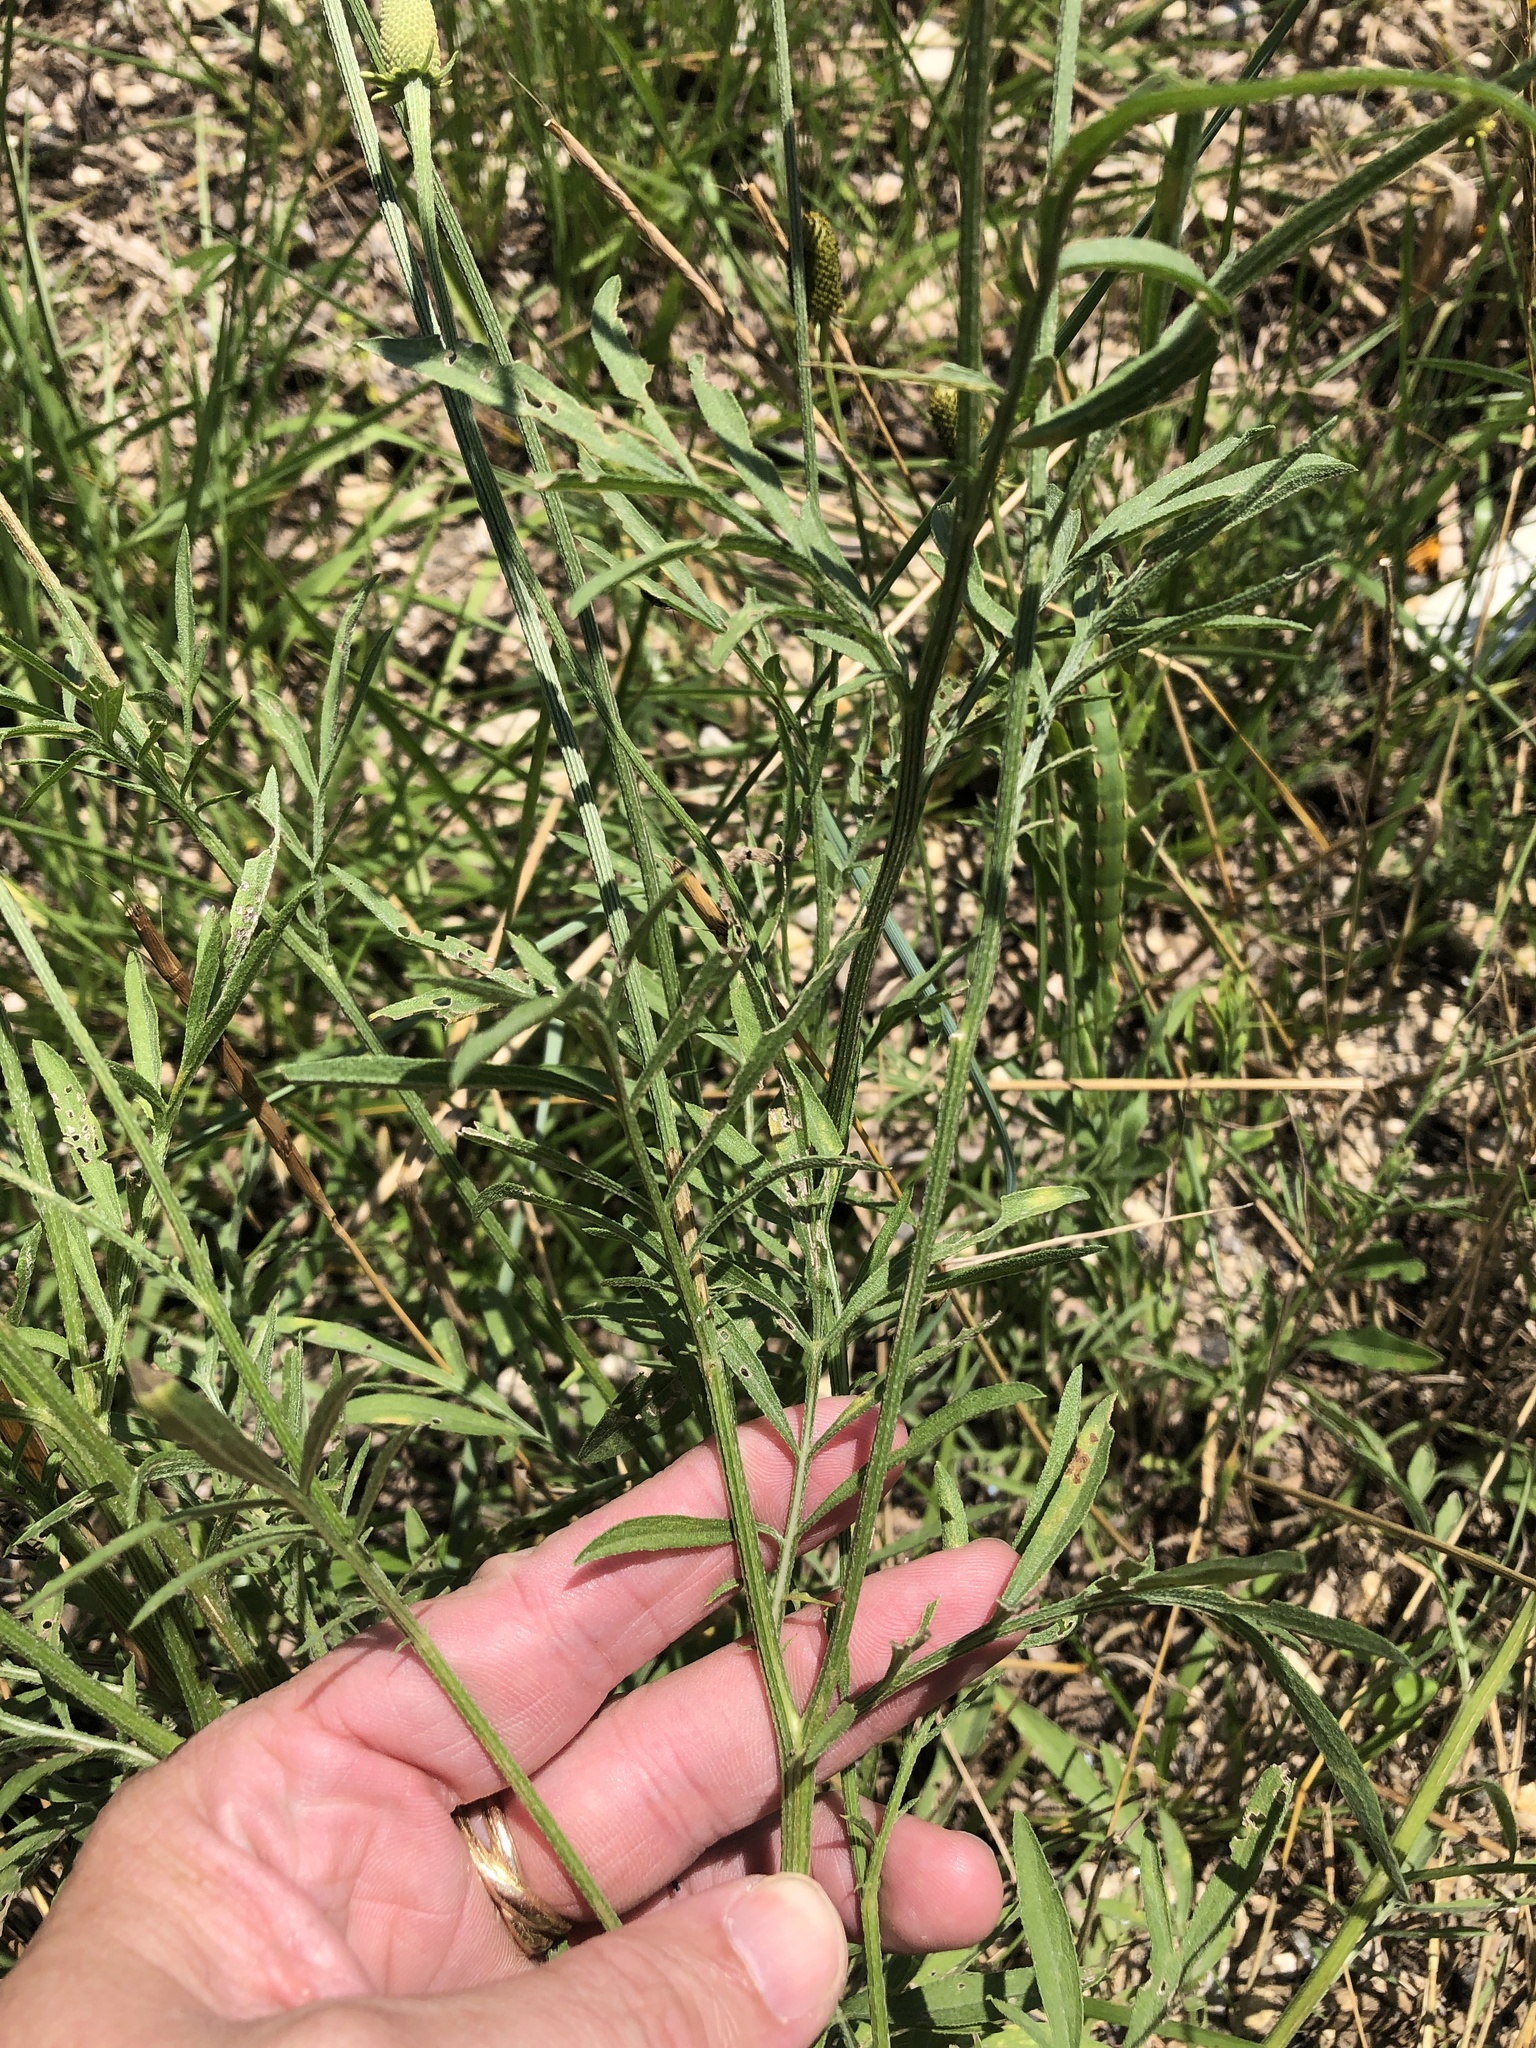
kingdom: Plantae
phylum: Tracheophyta
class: Magnoliopsida
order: Asterales
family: Asteraceae
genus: Ratibida
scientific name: Ratibida columnifera
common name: Prairie coneflower
